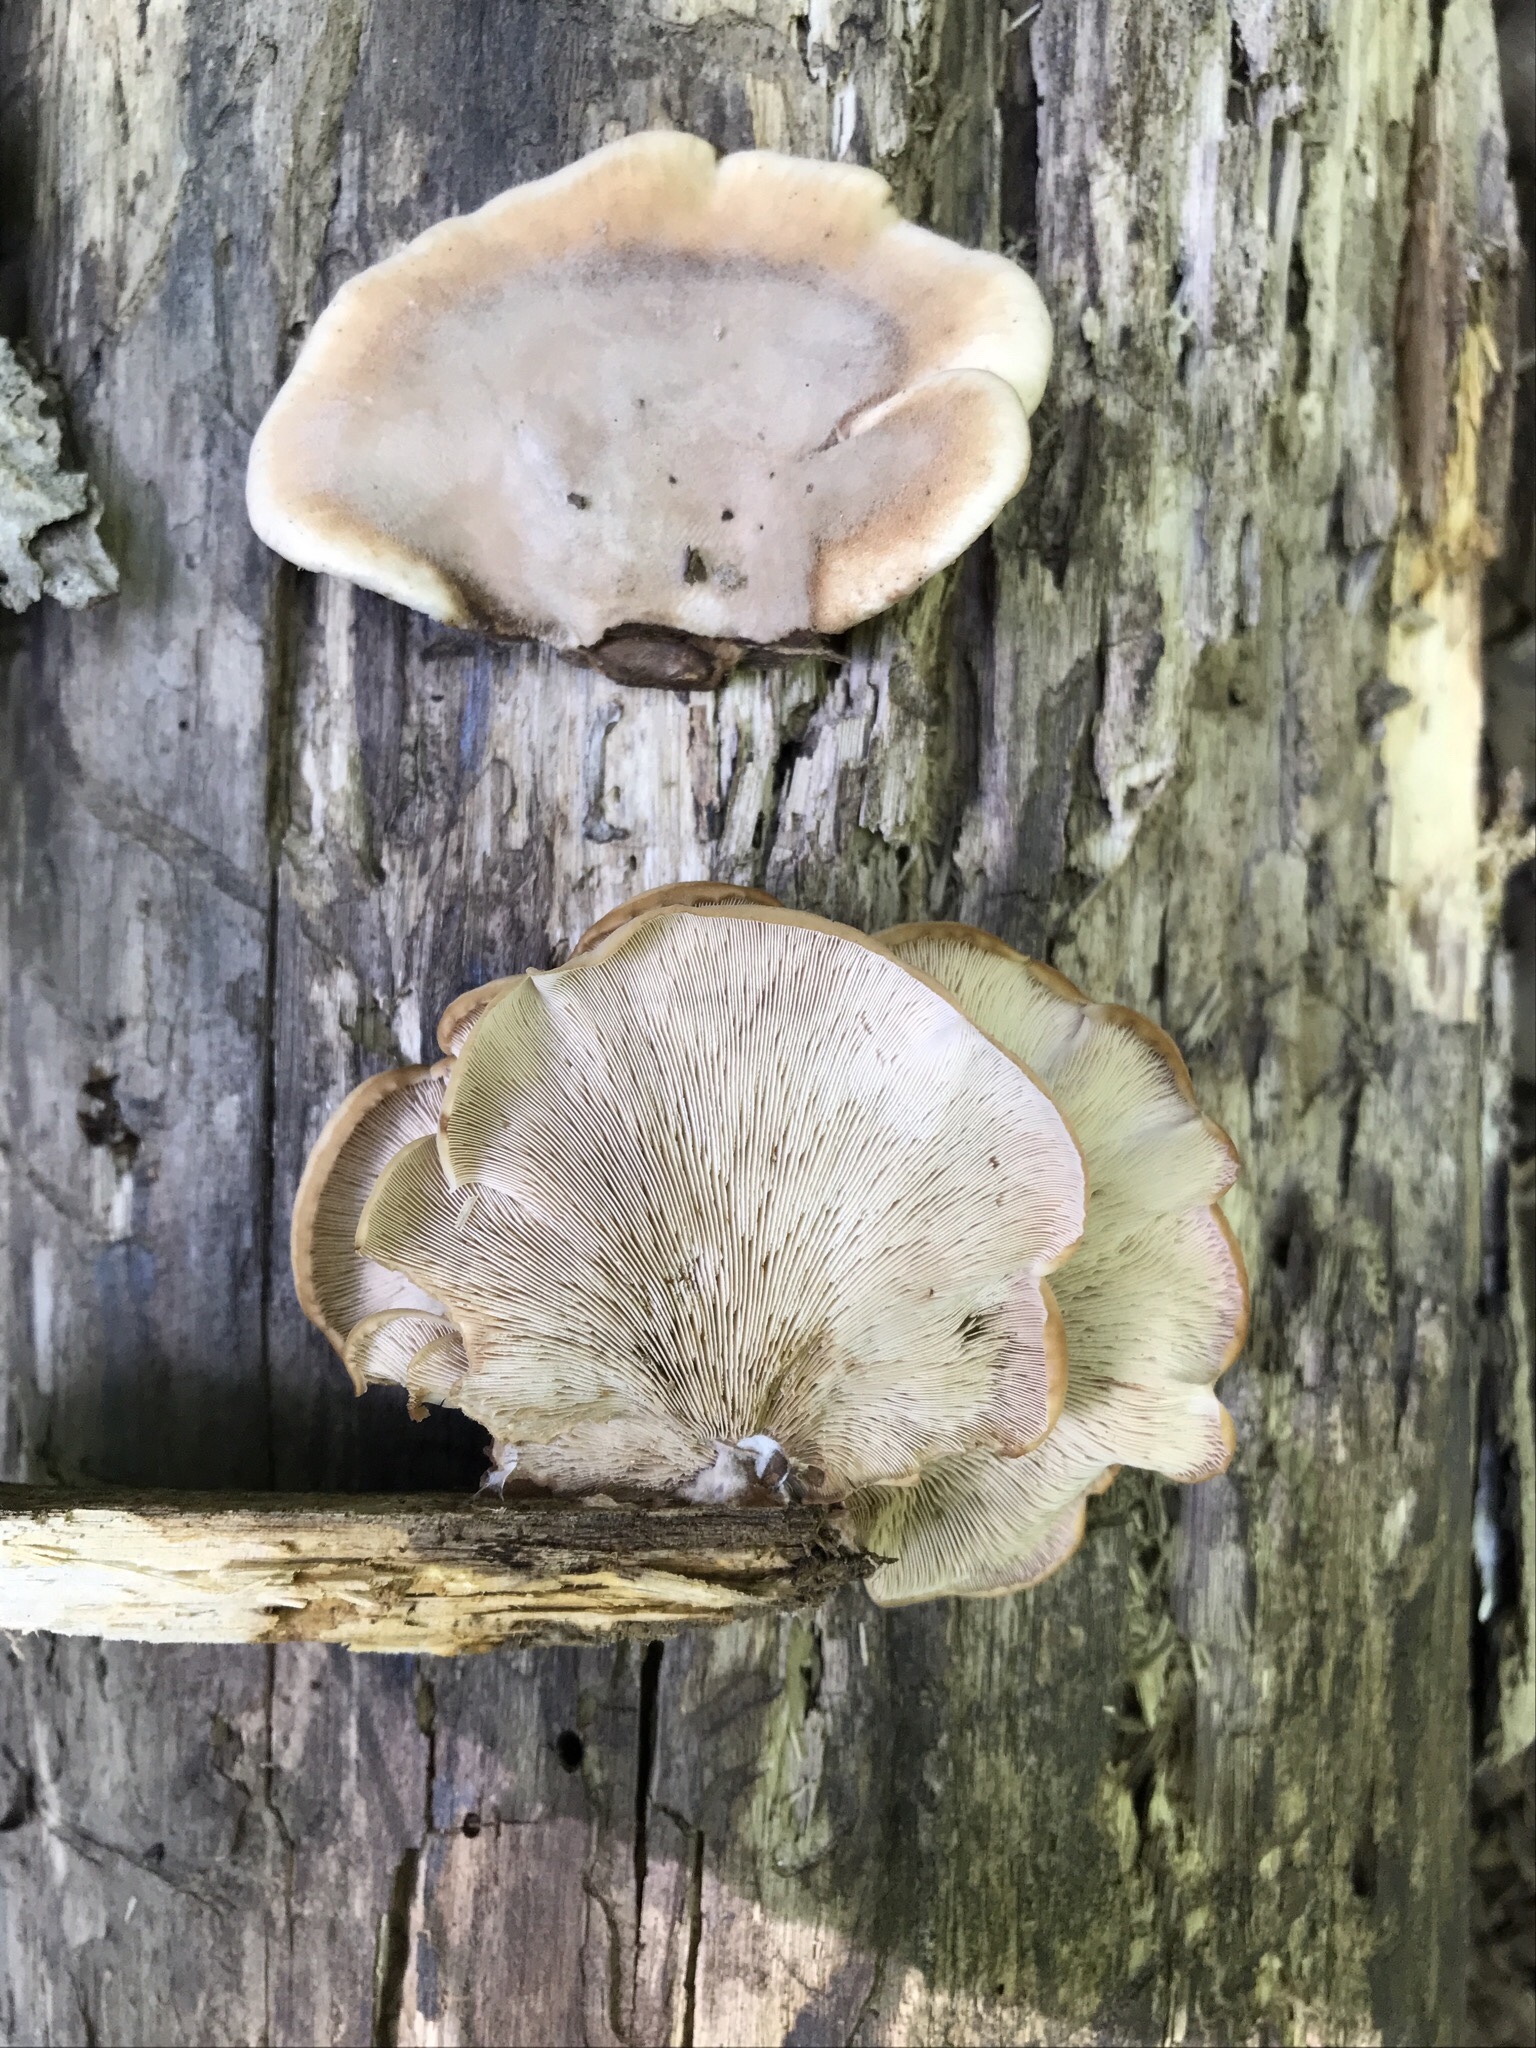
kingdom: Fungi
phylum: Basidiomycota
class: Agaricomycetes
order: Russulales
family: Auriscalpiaceae
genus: Lentinellus
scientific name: Lentinellus ursinus
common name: Bear lentinus
